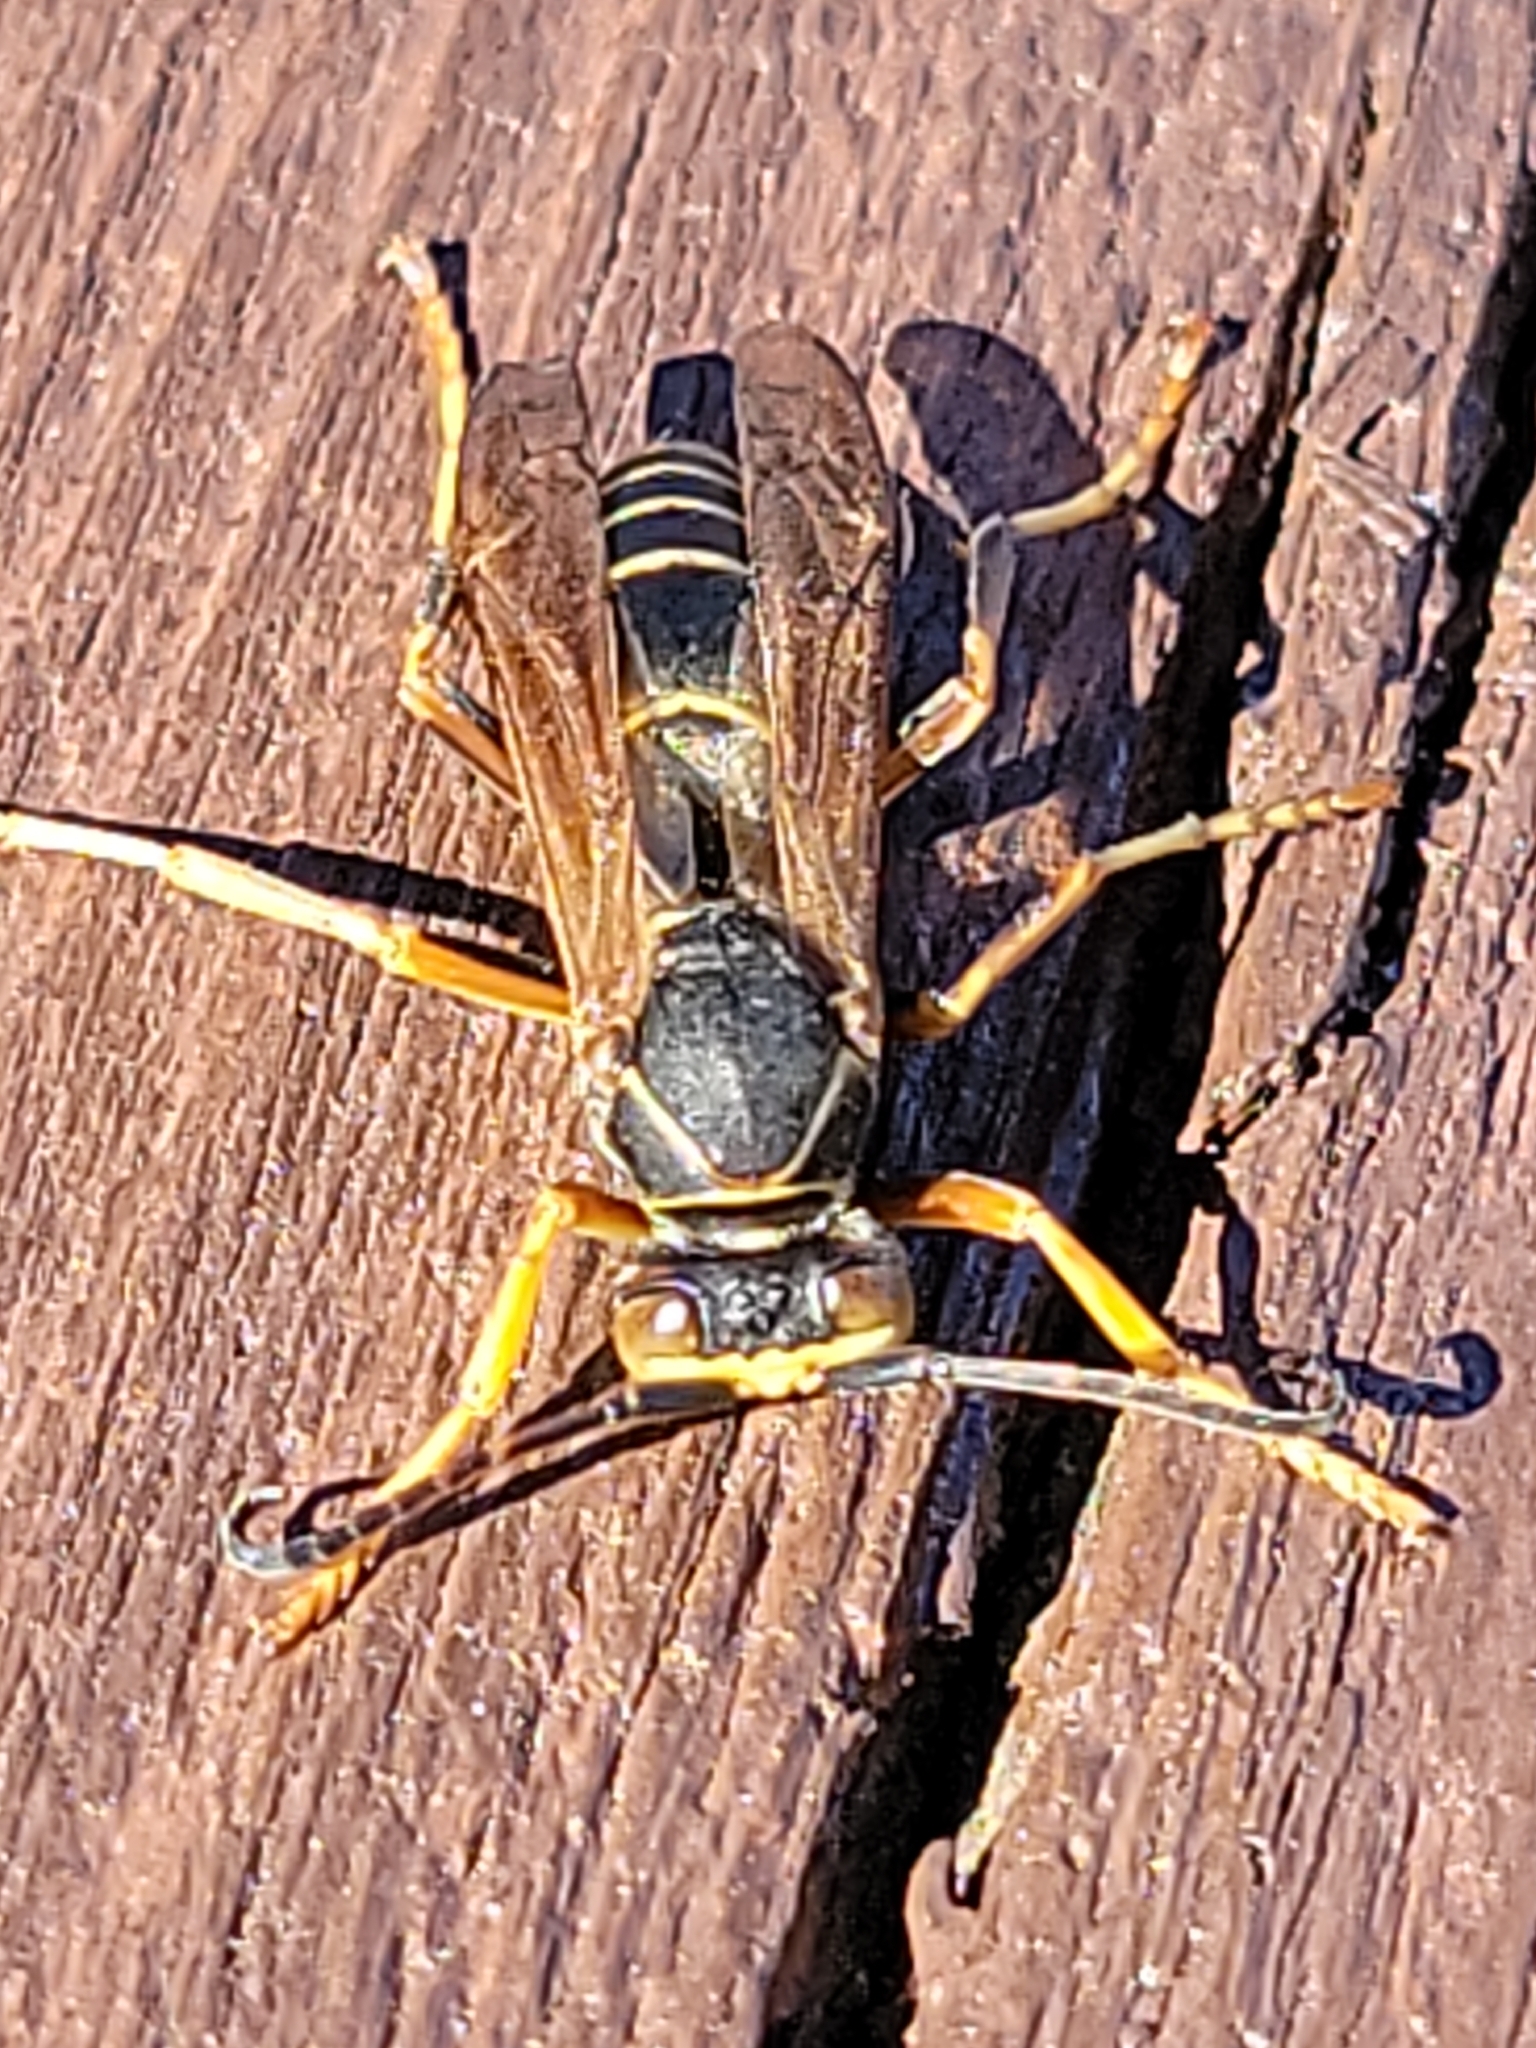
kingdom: Animalia
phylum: Arthropoda
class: Insecta
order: Hymenoptera
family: Eumenidae
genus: Polistes
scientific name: Polistes fuscatus
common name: Dark paper wasp
